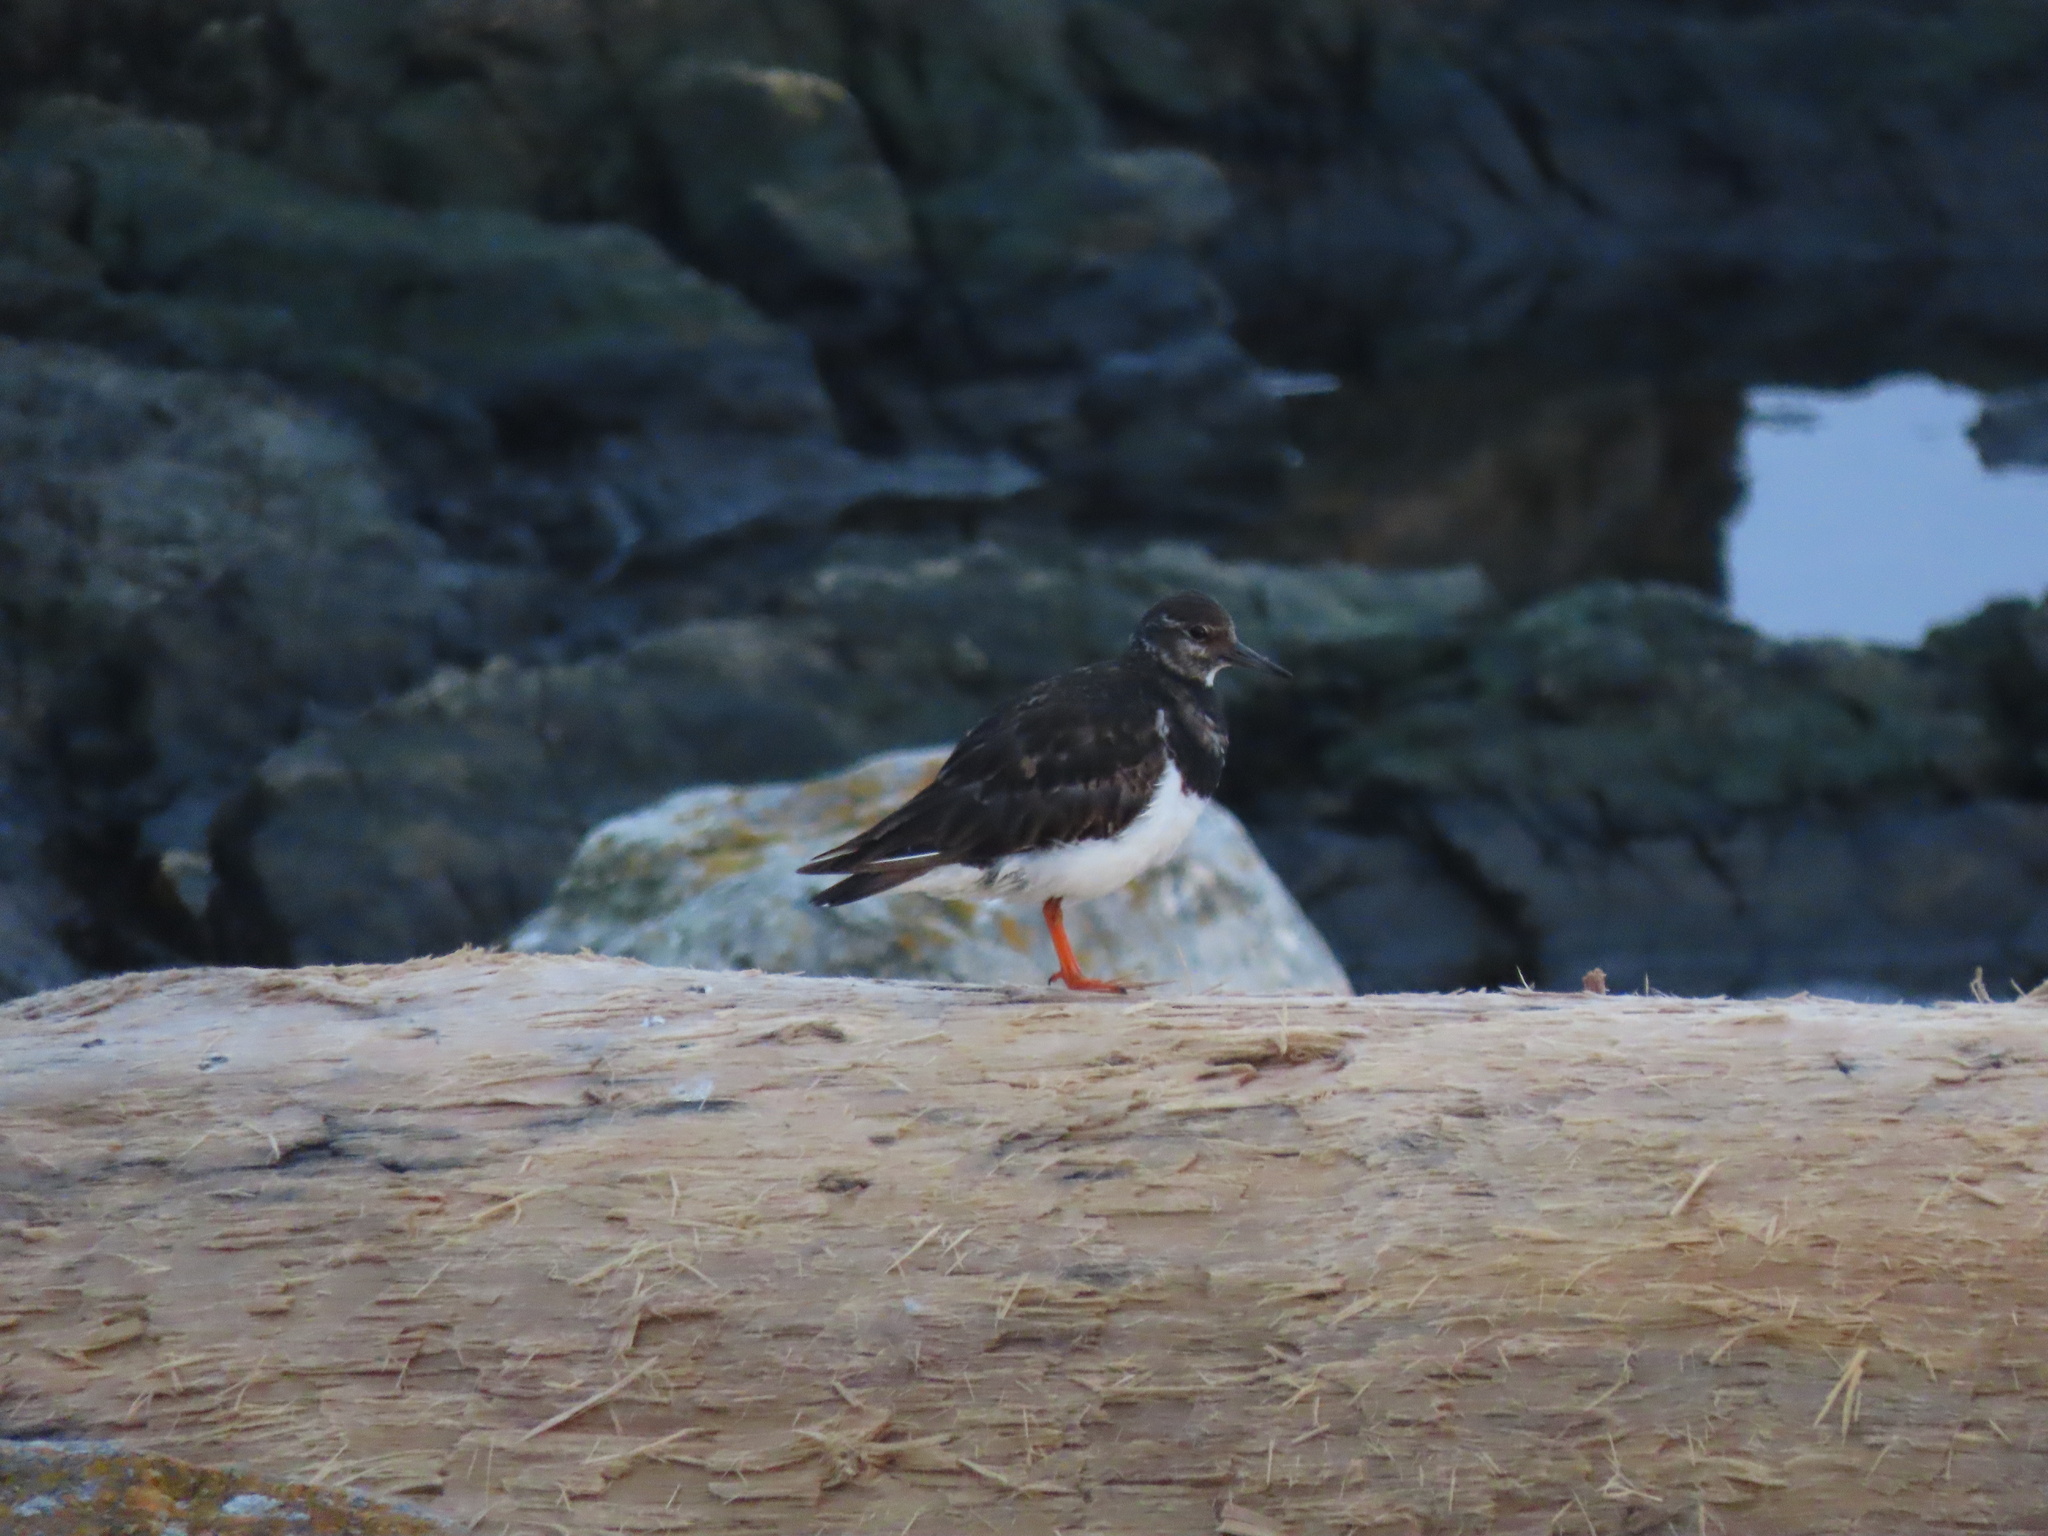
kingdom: Animalia
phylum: Chordata
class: Aves
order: Charadriiformes
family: Scolopacidae
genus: Arenaria
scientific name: Arenaria interpres
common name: Ruddy turnstone
